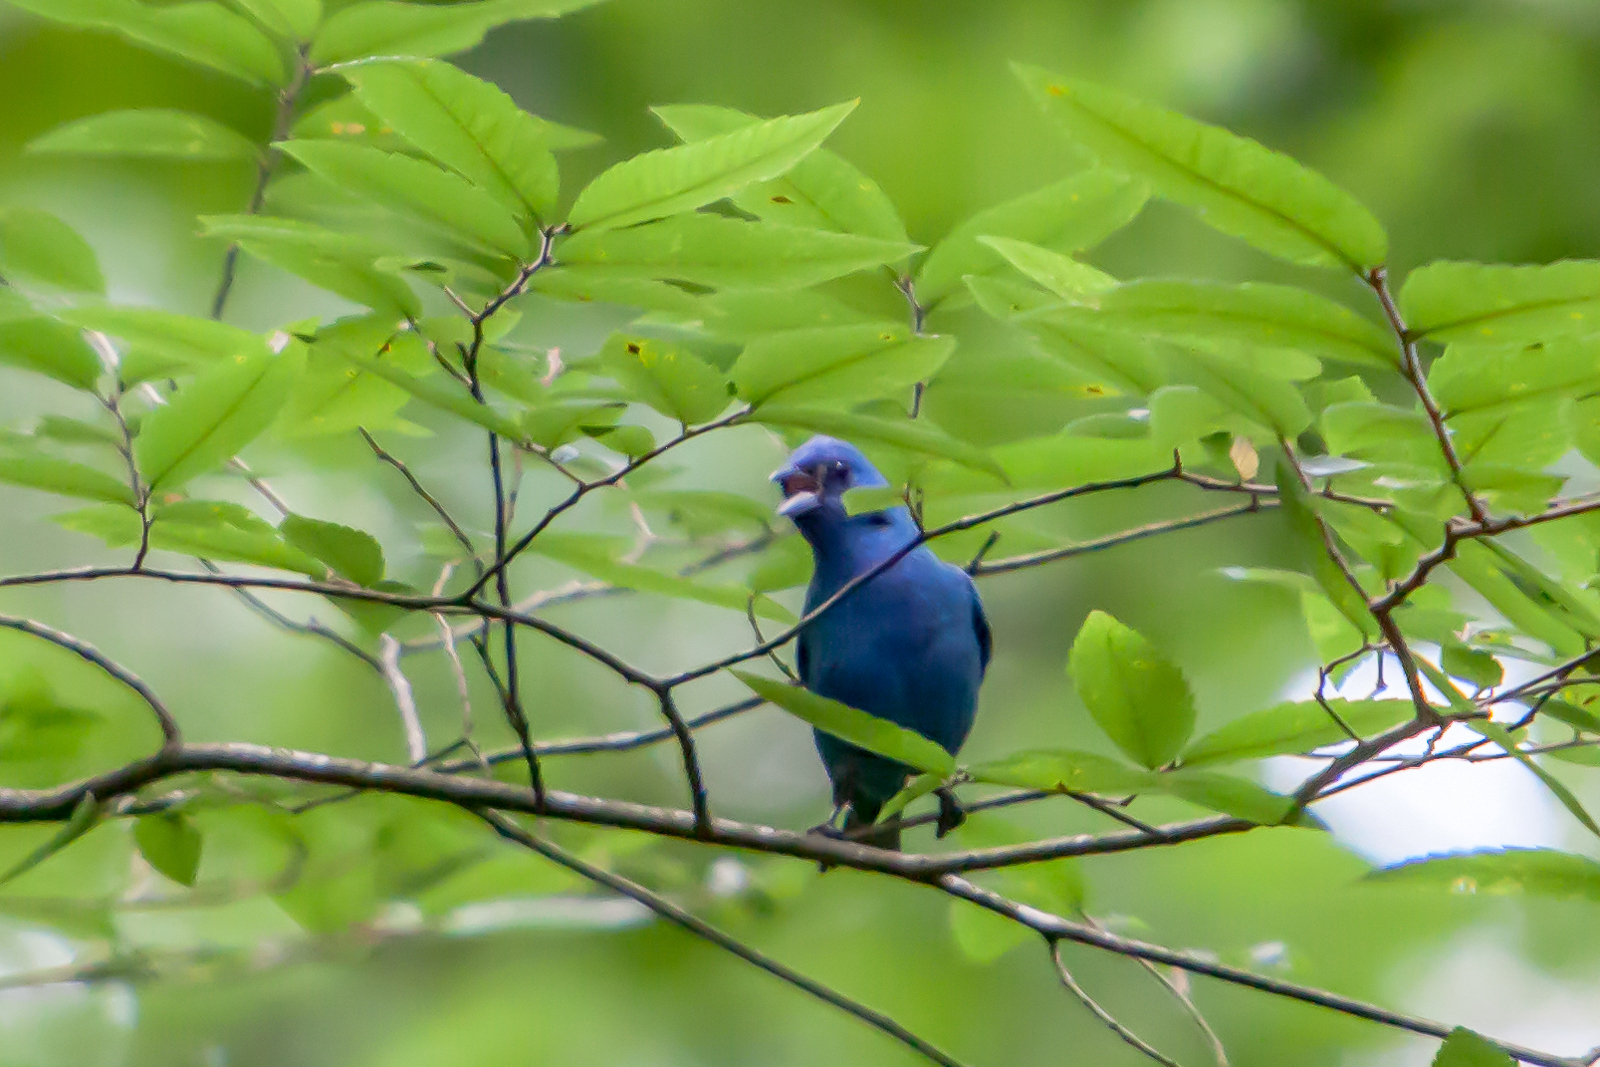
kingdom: Animalia
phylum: Chordata
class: Aves
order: Passeriformes
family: Cardinalidae
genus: Passerina
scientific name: Passerina cyanea
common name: Indigo bunting
